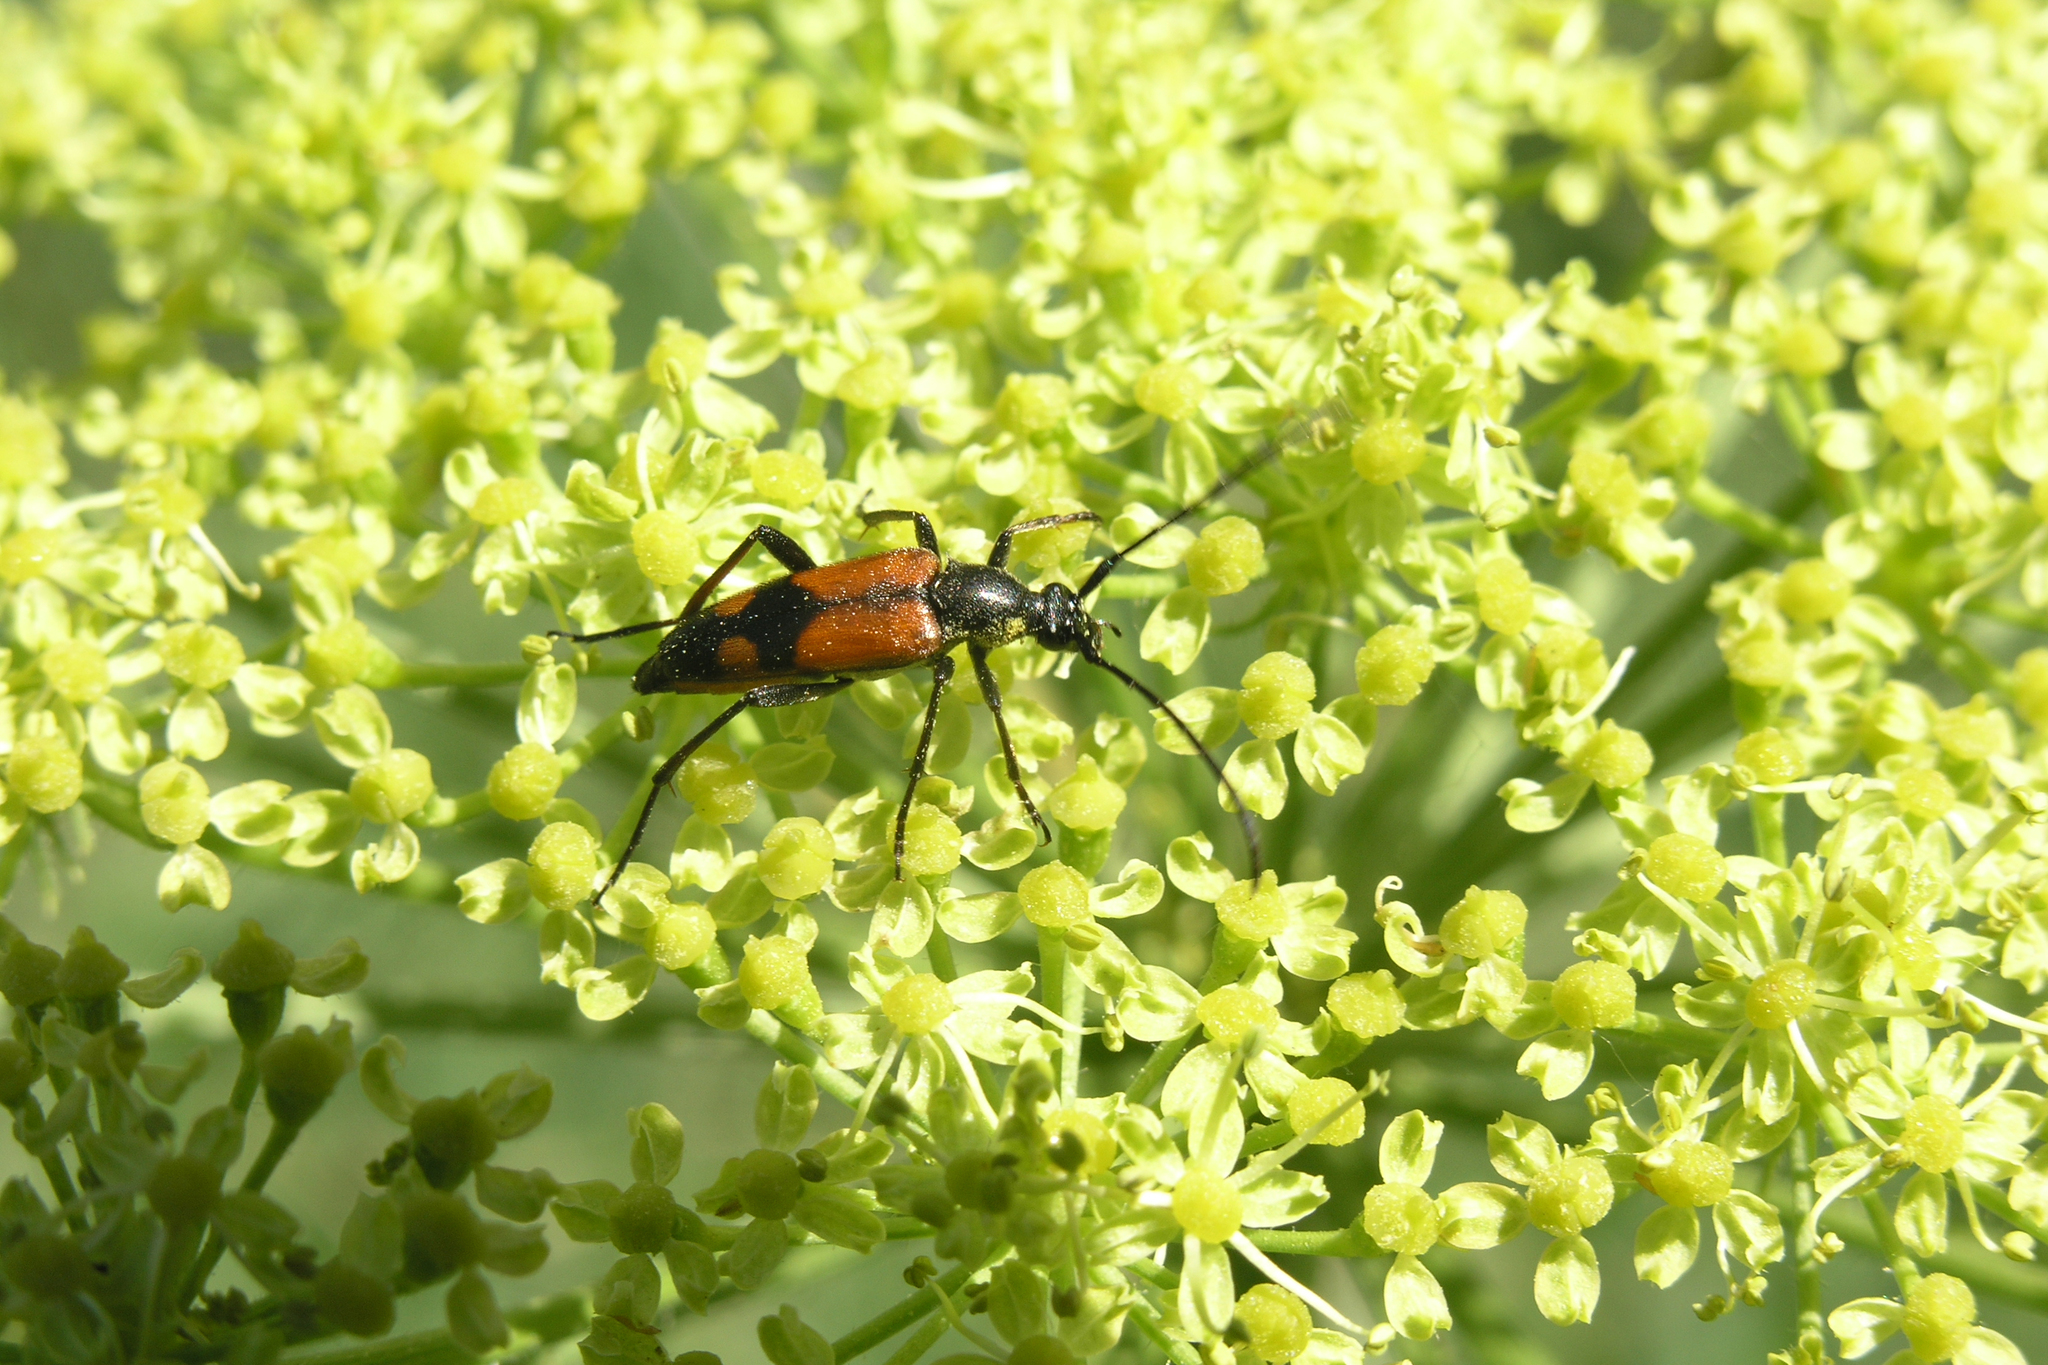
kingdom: Plantae
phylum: Tracheophyta
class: Magnoliopsida
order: Apiales
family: Apiaceae
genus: Heracleum
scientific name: Heracleum sphondylium
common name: Hogweed
